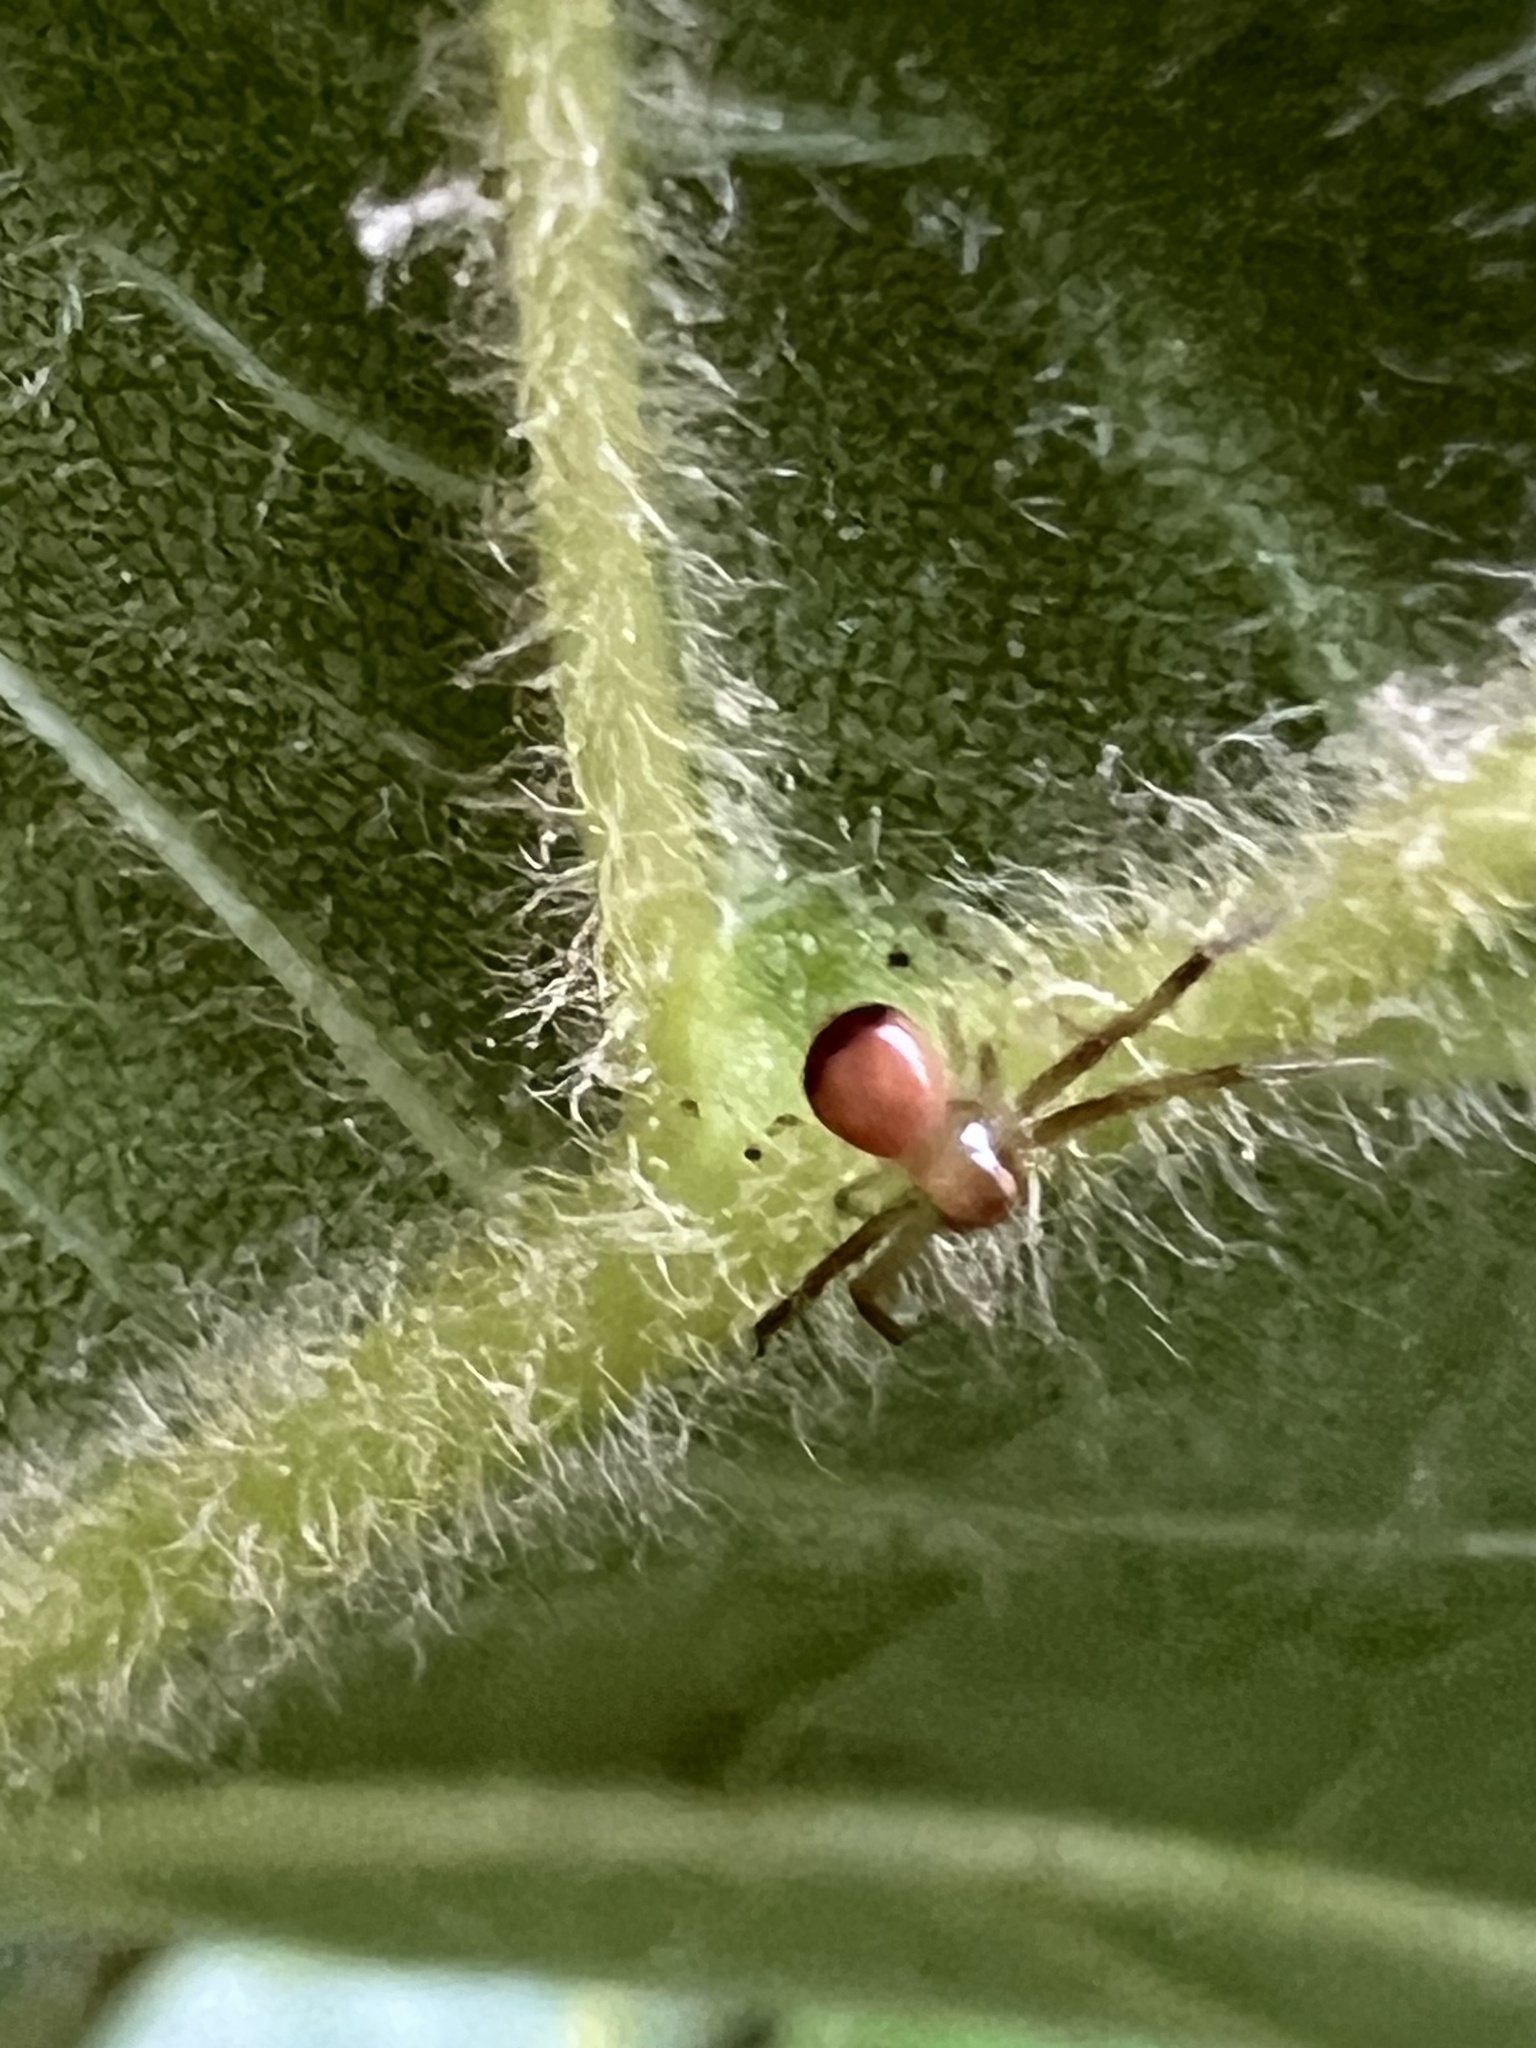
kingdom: Animalia
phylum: Arthropoda
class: Arachnida
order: Araneae
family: Thomisidae
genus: Synema
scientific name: Synema parvulum
